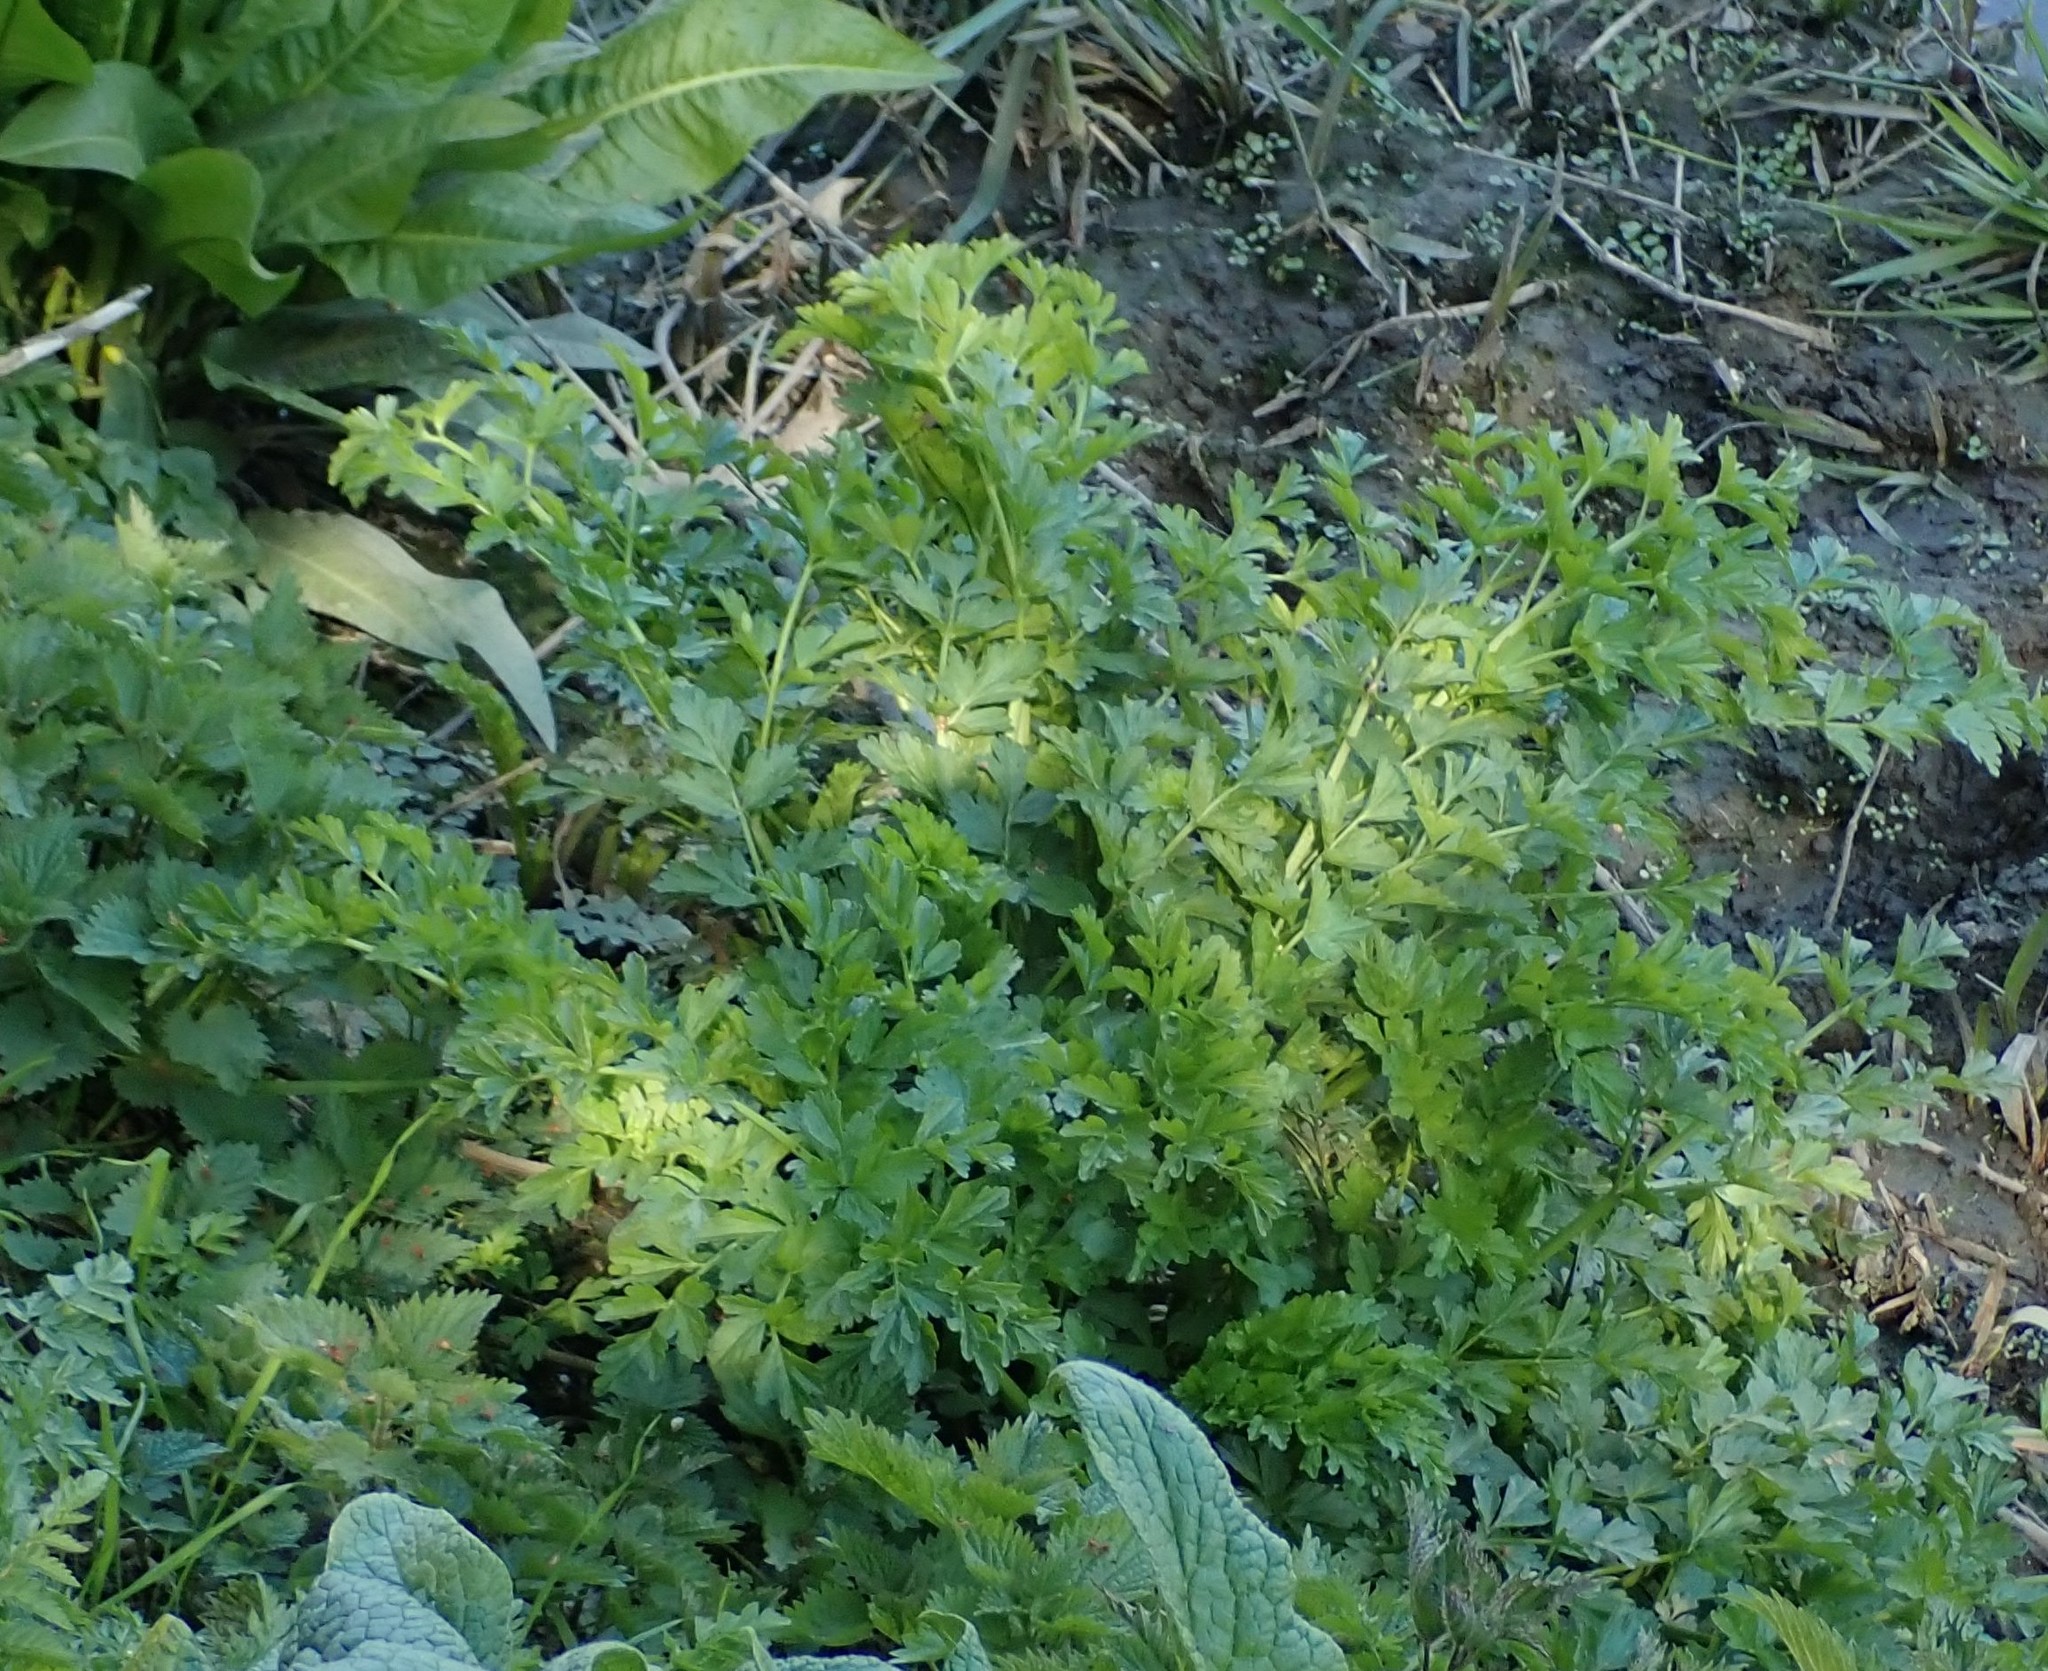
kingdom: Plantae
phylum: Tracheophyta
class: Magnoliopsida
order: Apiales
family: Apiaceae
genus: Oenanthe
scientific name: Oenanthe crocata
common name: Hemlock water-dropwort
